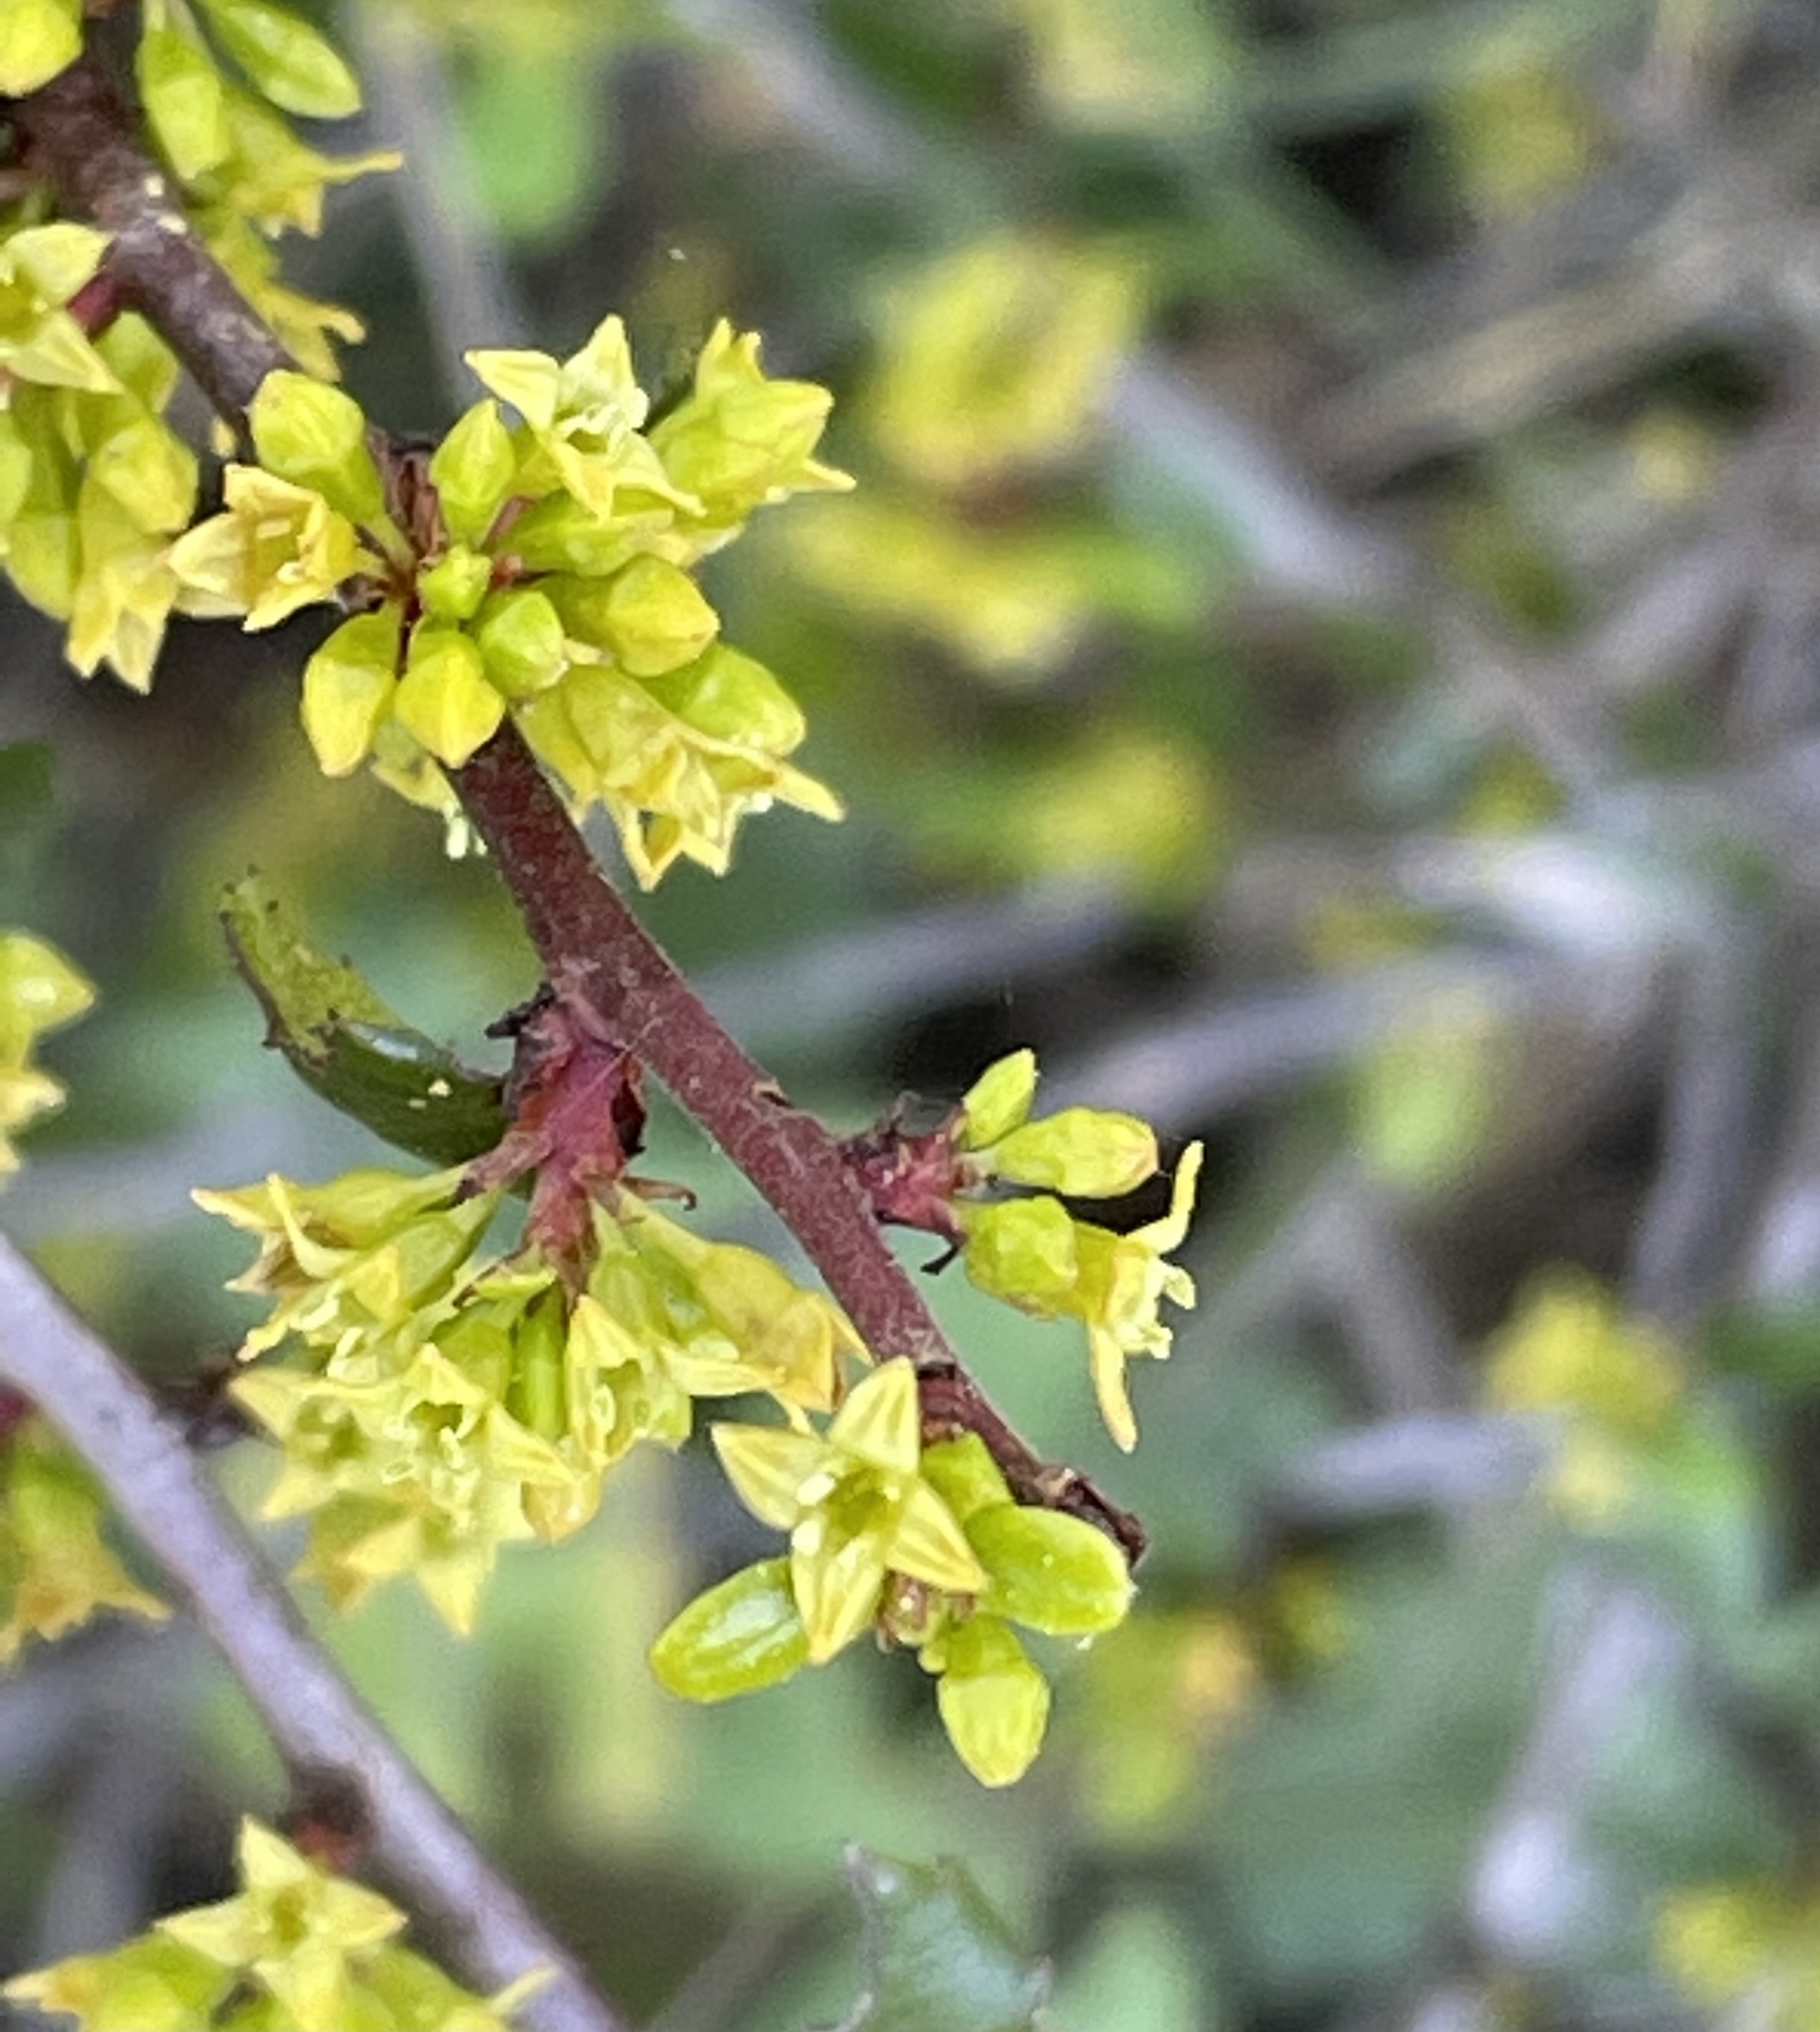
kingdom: Plantae
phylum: Tracheophyta
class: Magnoliopsida
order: Rosales
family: Rhamnaceae
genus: Endotropis
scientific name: Endotropis crocea
